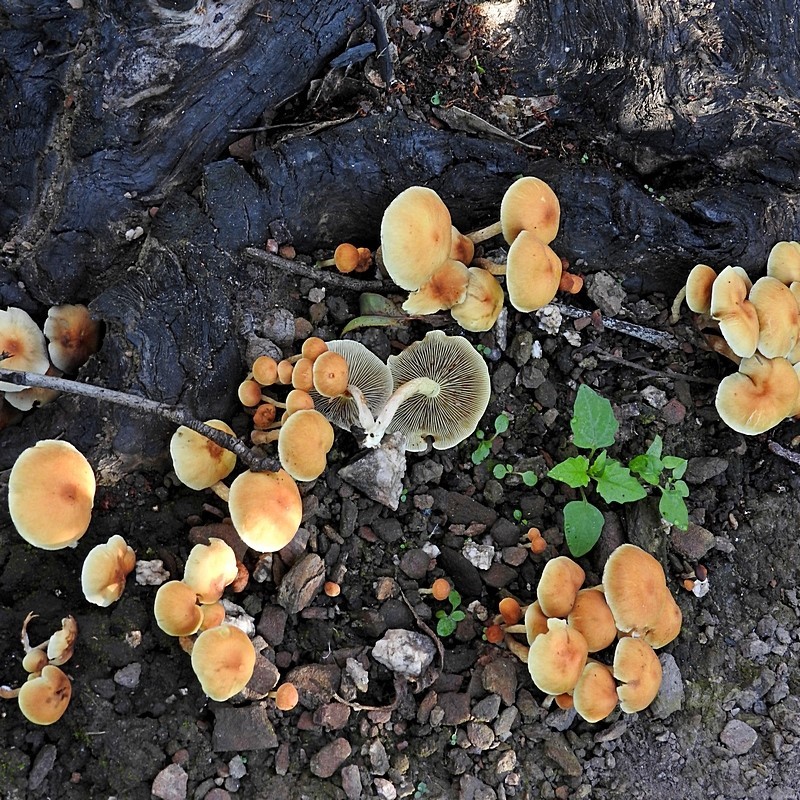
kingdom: Fungi
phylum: Basidiomycota
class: Agaricomycetes
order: Agaricales
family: Strophariaceae
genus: Hypholoma
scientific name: Hypholoma fasciculare
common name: Sulphur tuft
